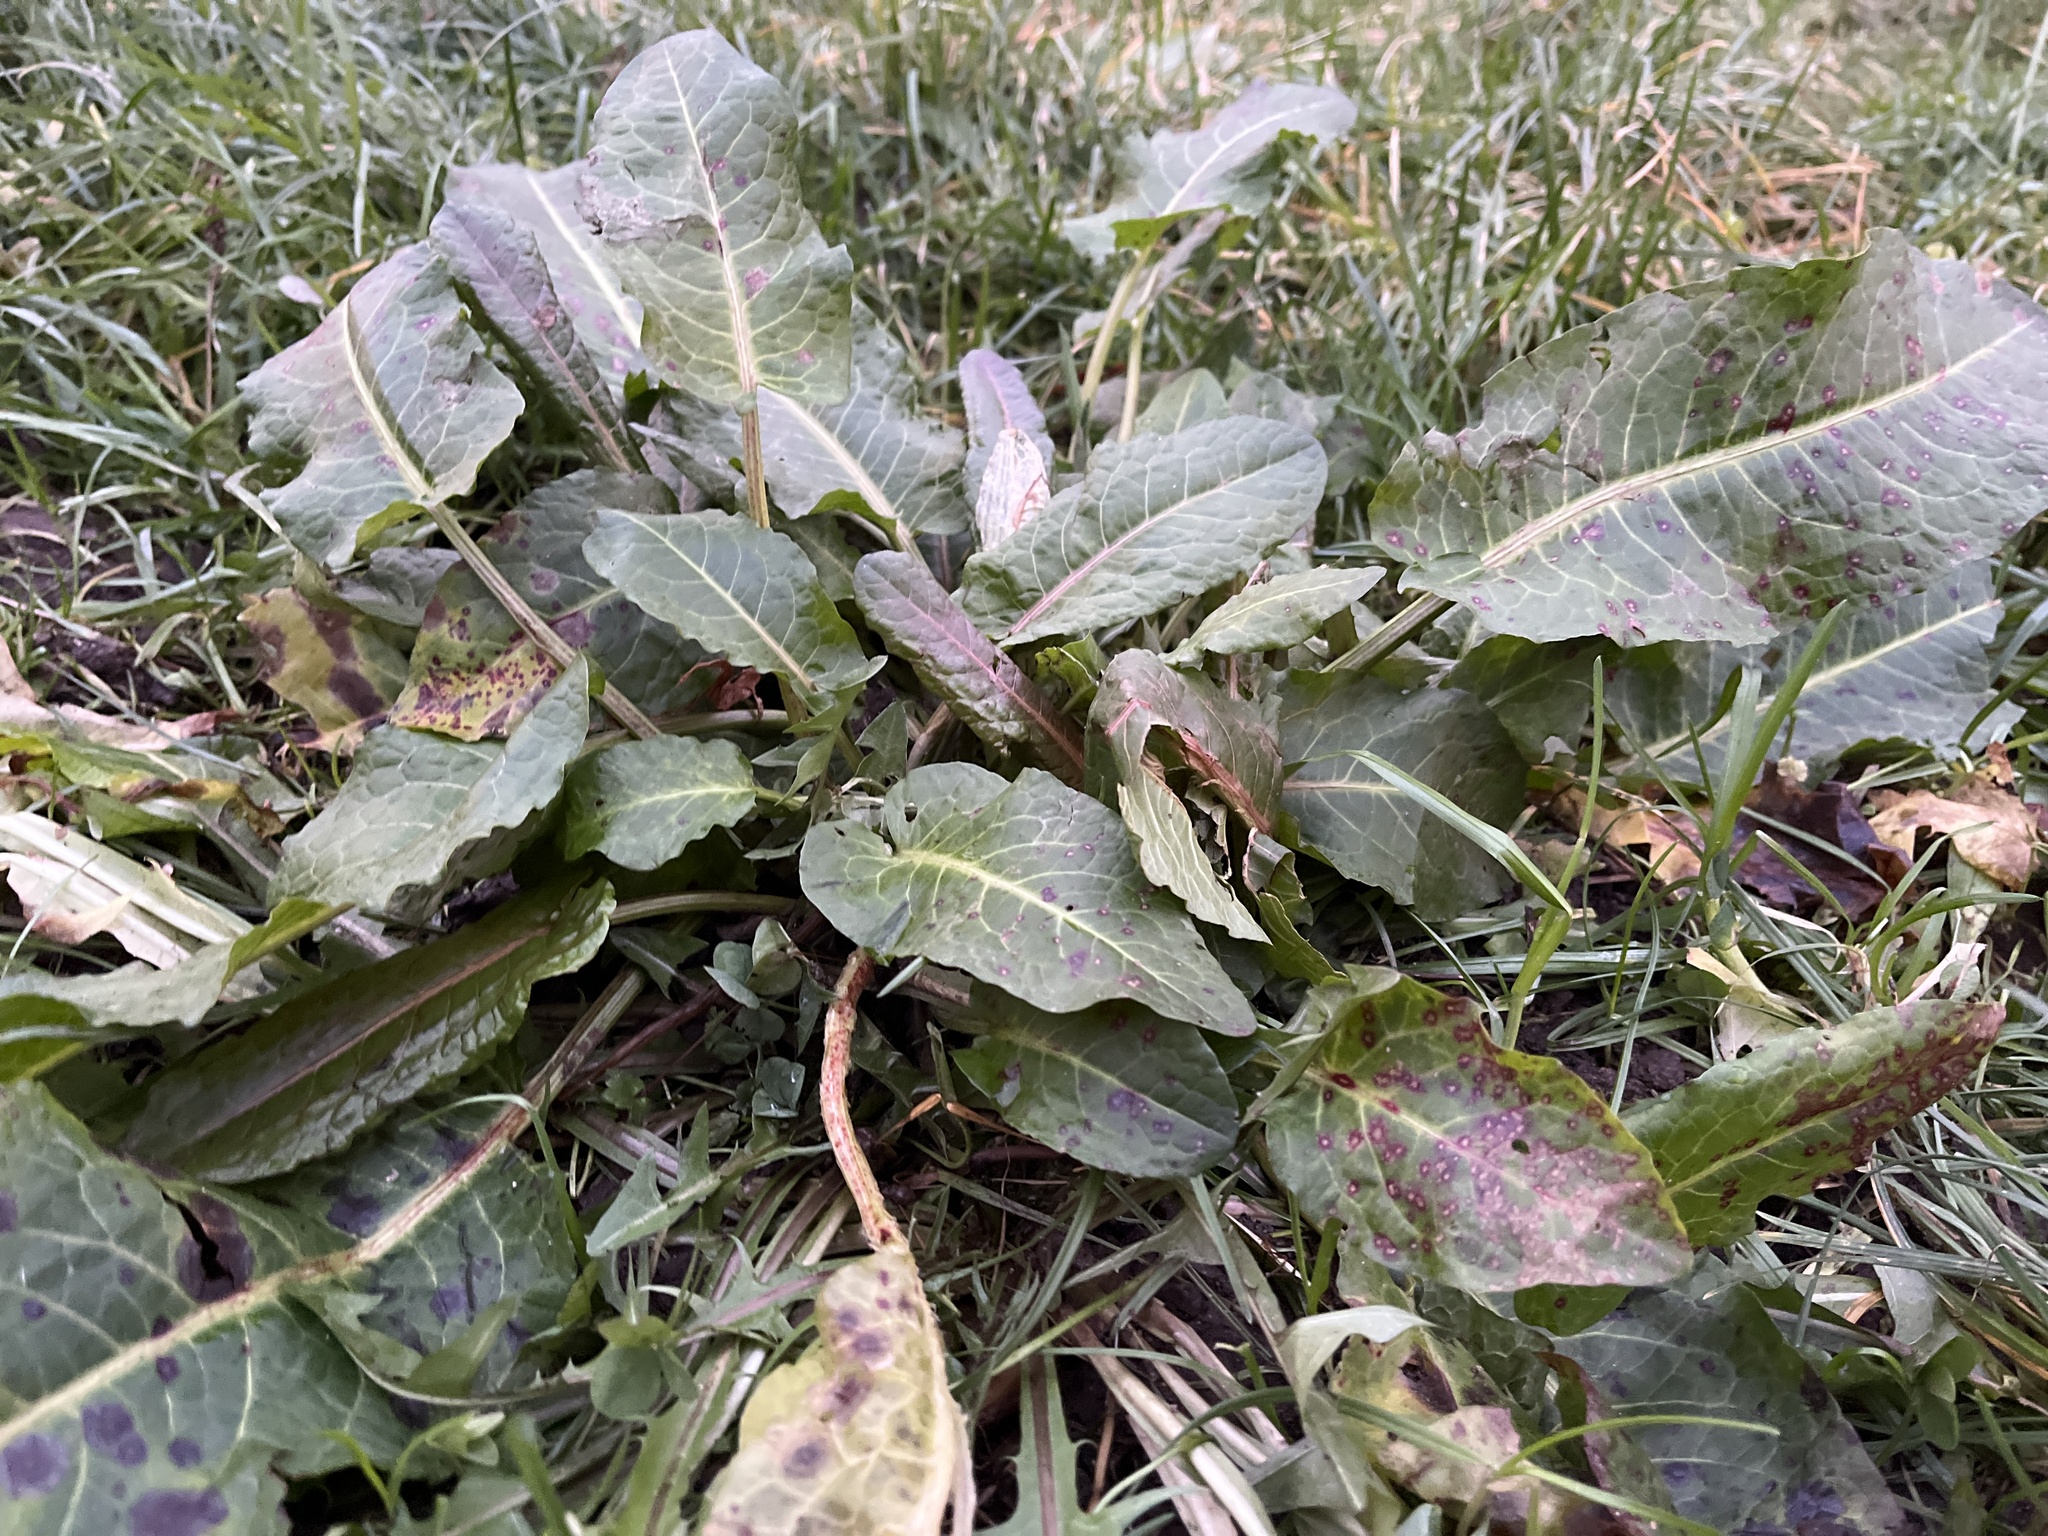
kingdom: Plantae
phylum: Tracheophyta
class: Magnoliopsida
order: Caryophyllales
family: Polygonaceae
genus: Rumex
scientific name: Rumex obtusifolius
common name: Bitter dock
